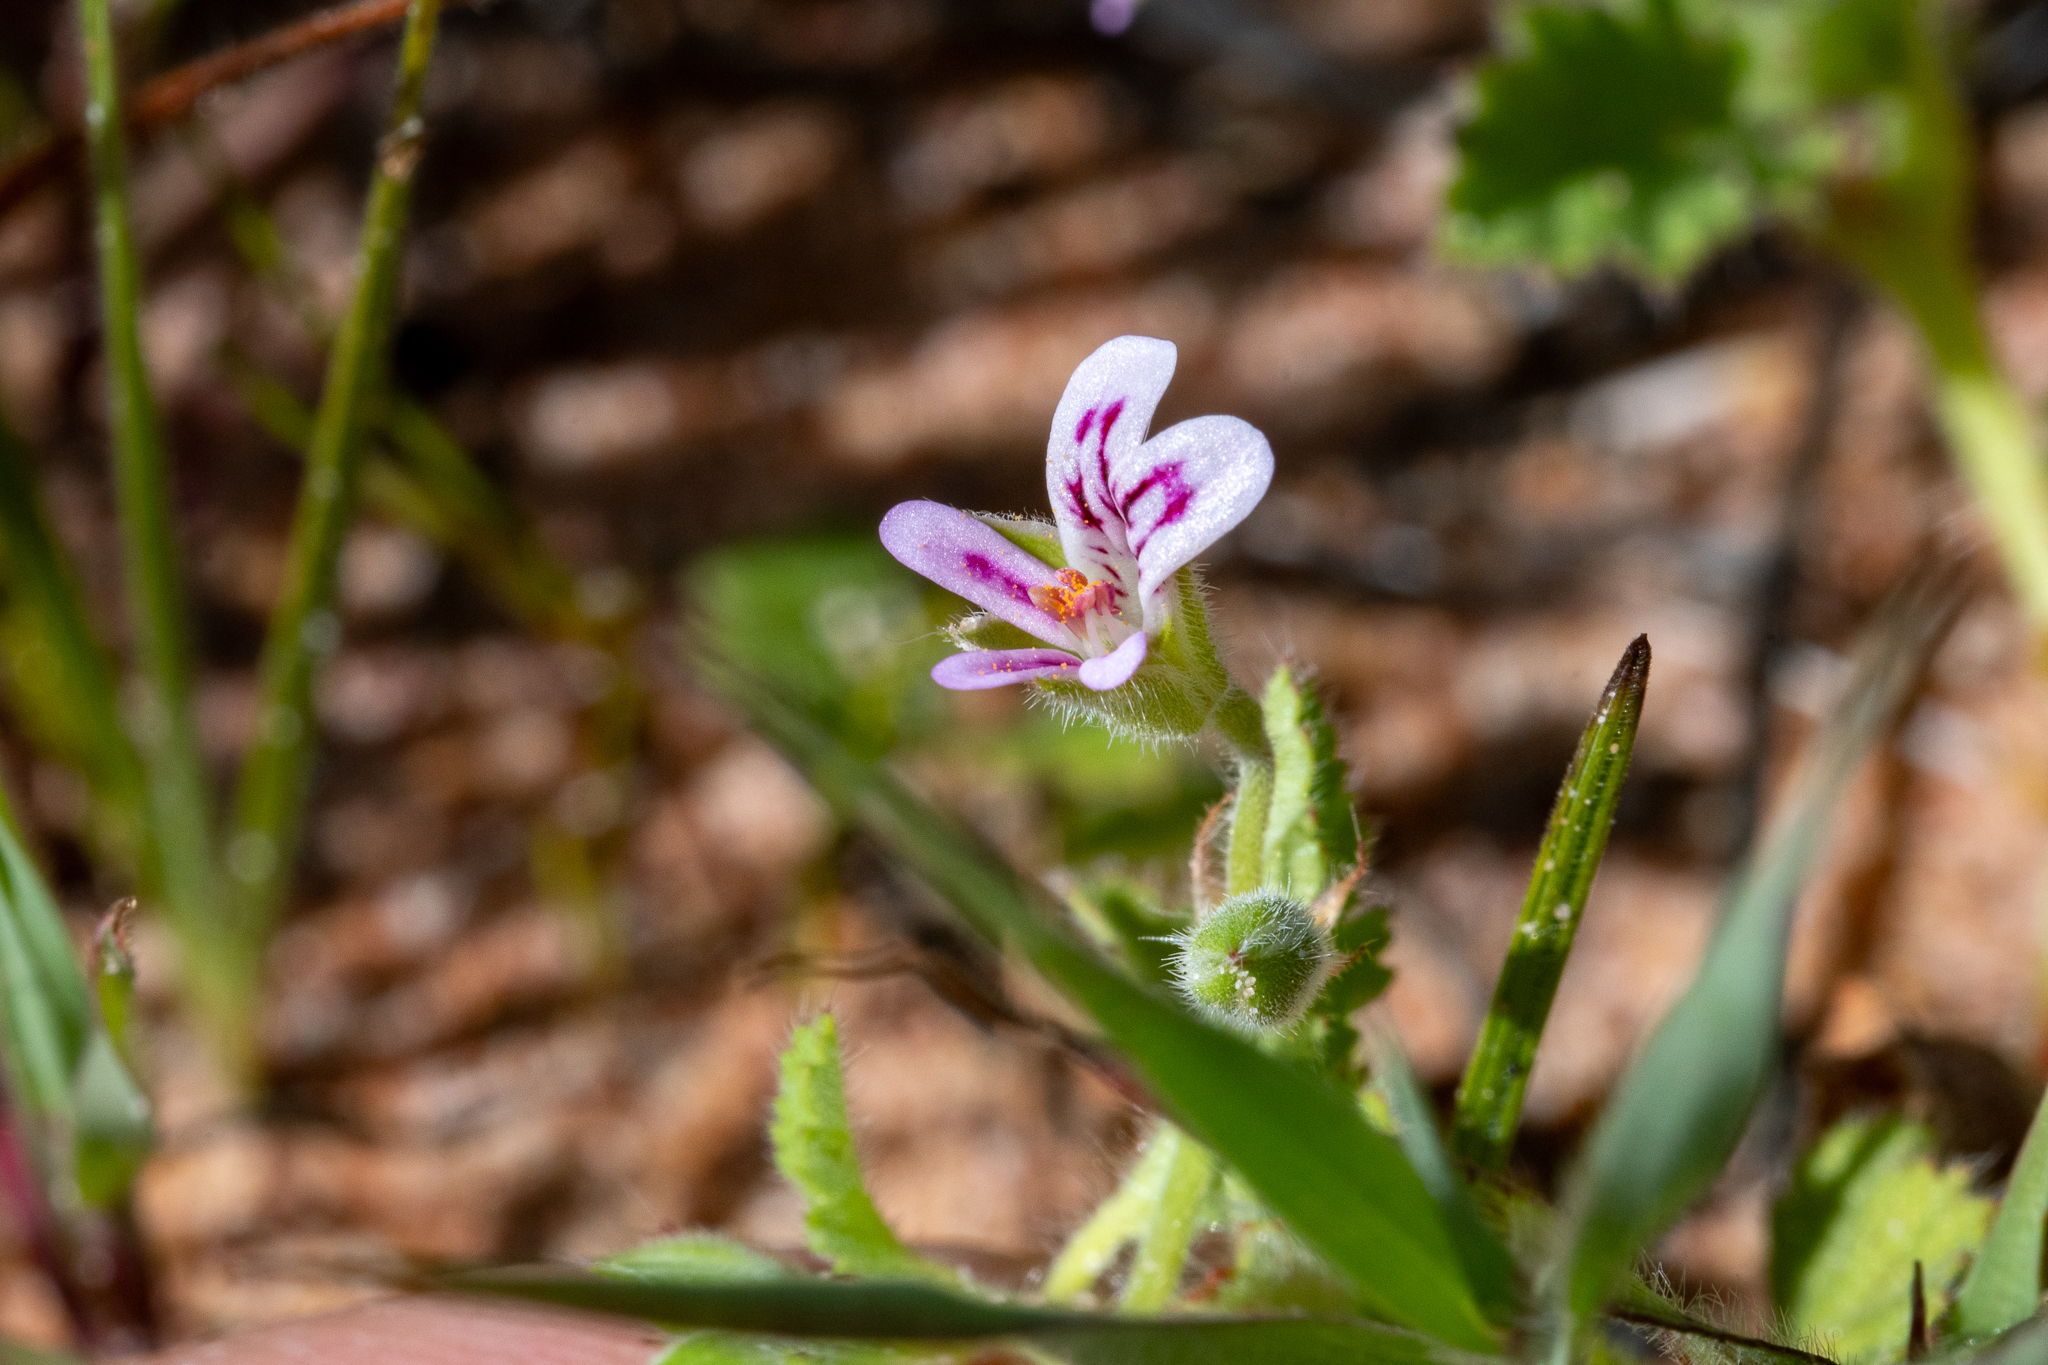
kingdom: Plantae
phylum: Tracheophyta
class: Magnoliopsida
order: Geraniales
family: Geraniaceae
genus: Pelargonium
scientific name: Pelargonium althaeoides
